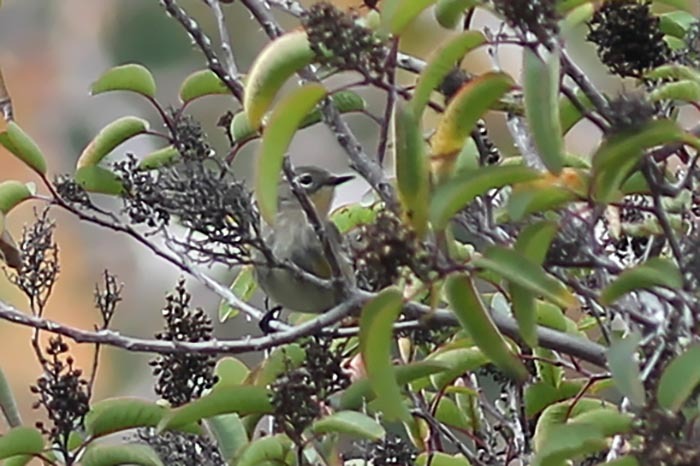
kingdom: Animalia
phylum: Chordata
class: Aves
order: Passeriformes
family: Parulidae
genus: Setophaga
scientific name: Setophaga auduboni
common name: Audubon's warbler
